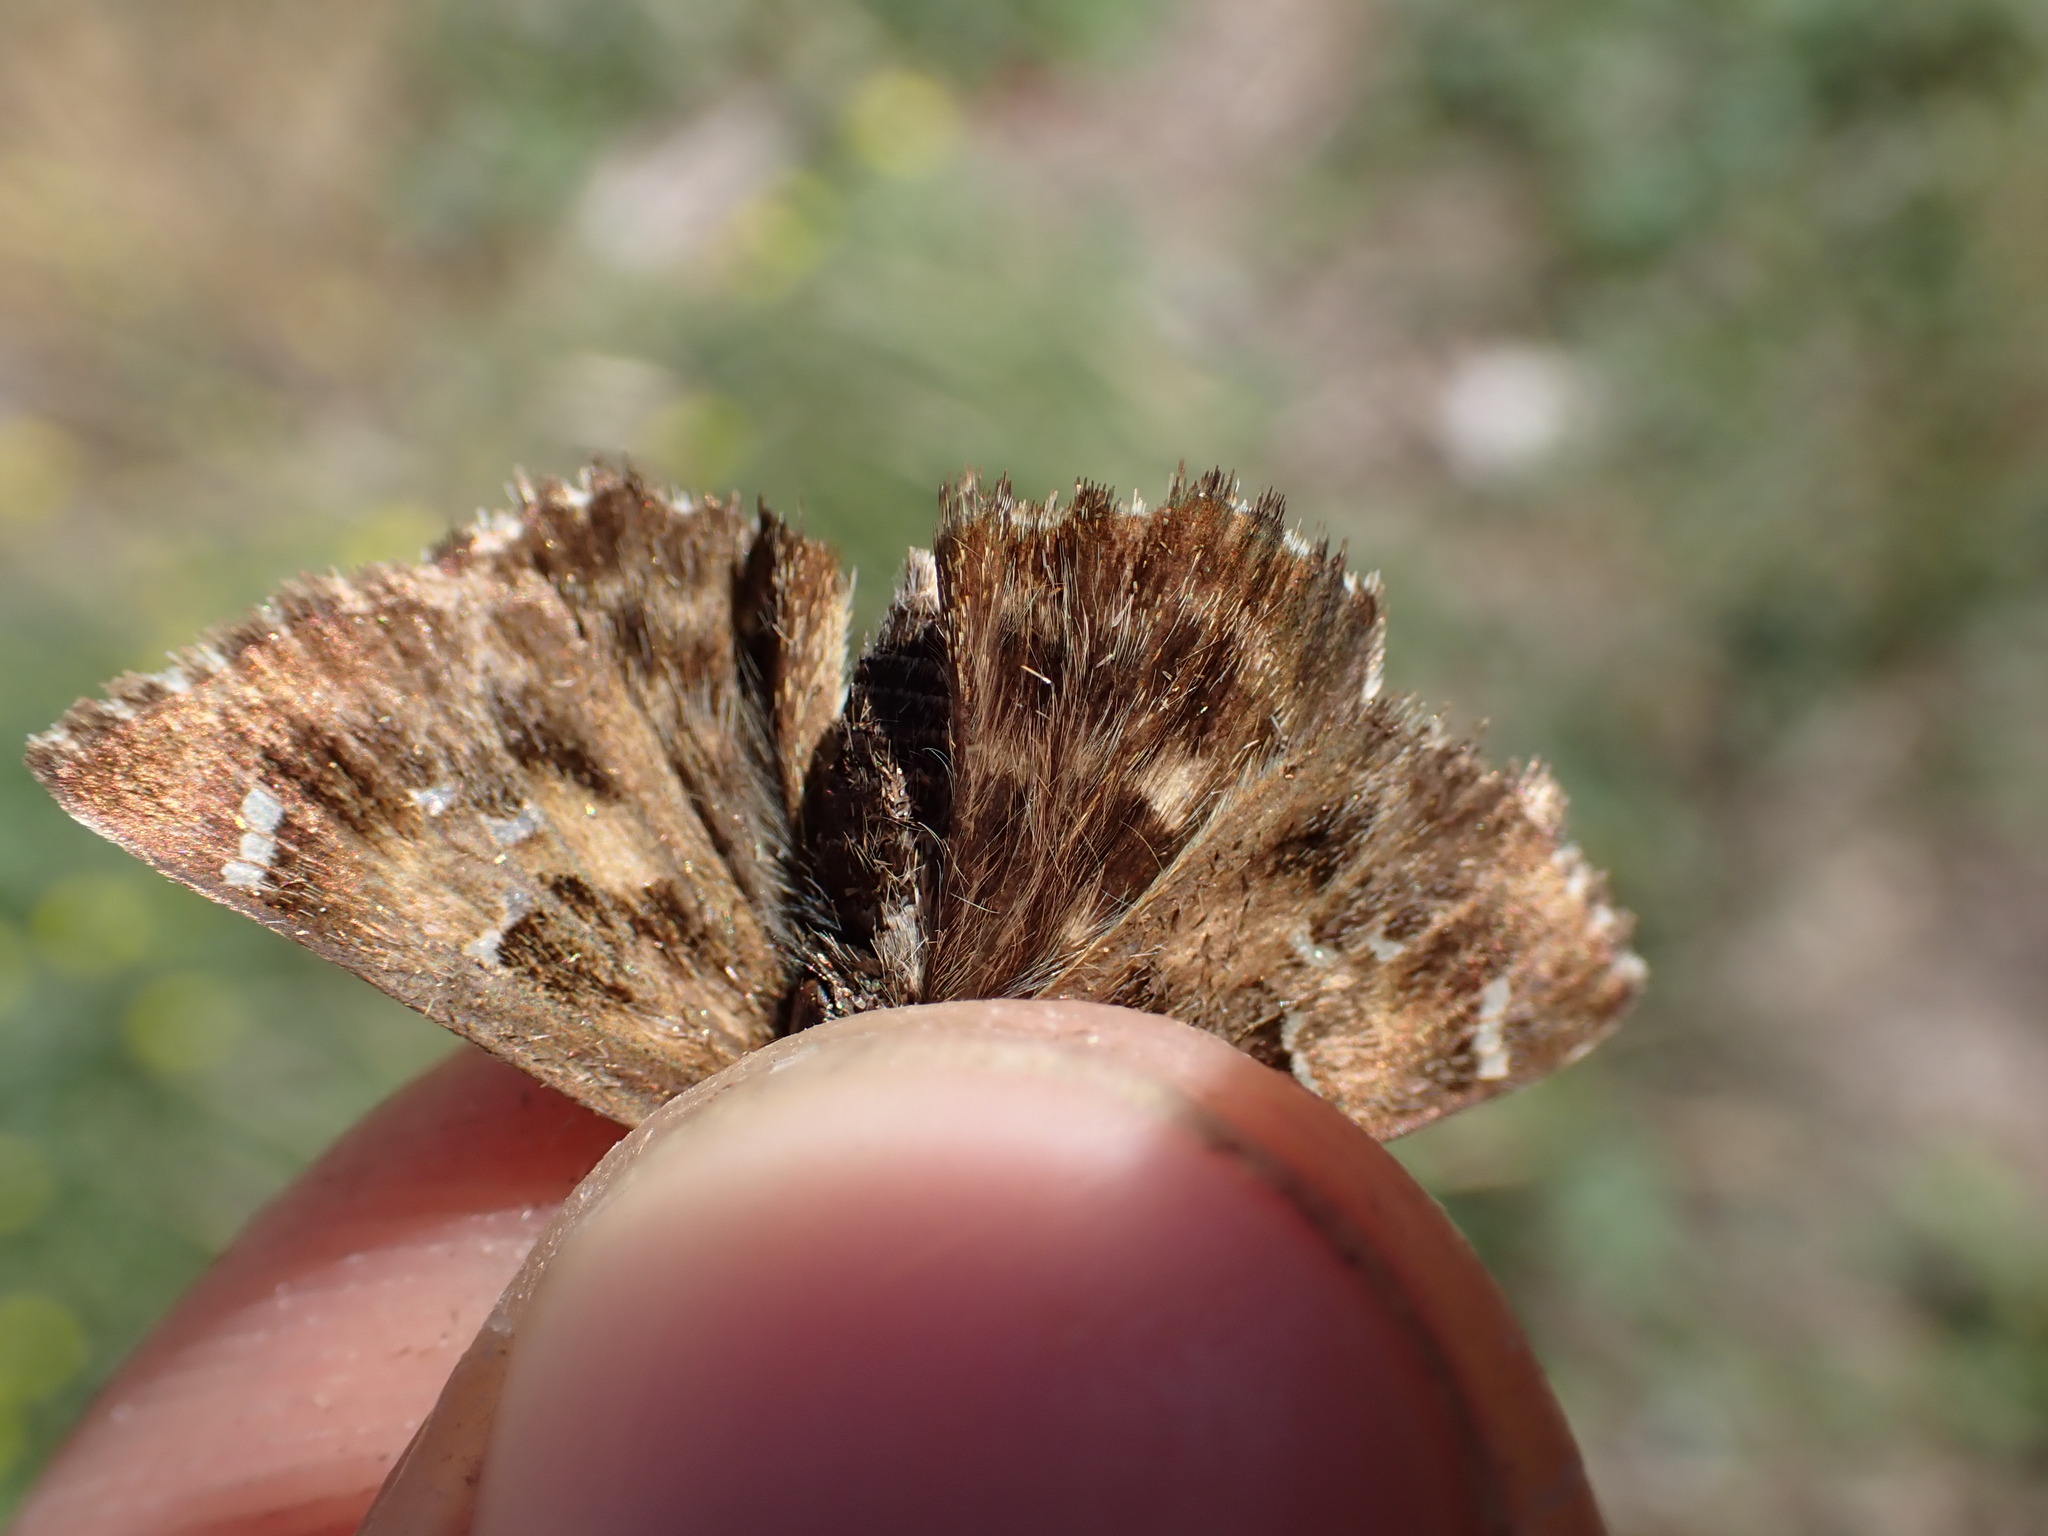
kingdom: Animalia
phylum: Arthropoda
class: Insecta
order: Lepidoptera
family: Hesperiidae
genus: Carcharodus
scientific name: Carcharodus alceae
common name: Mallow skipper
